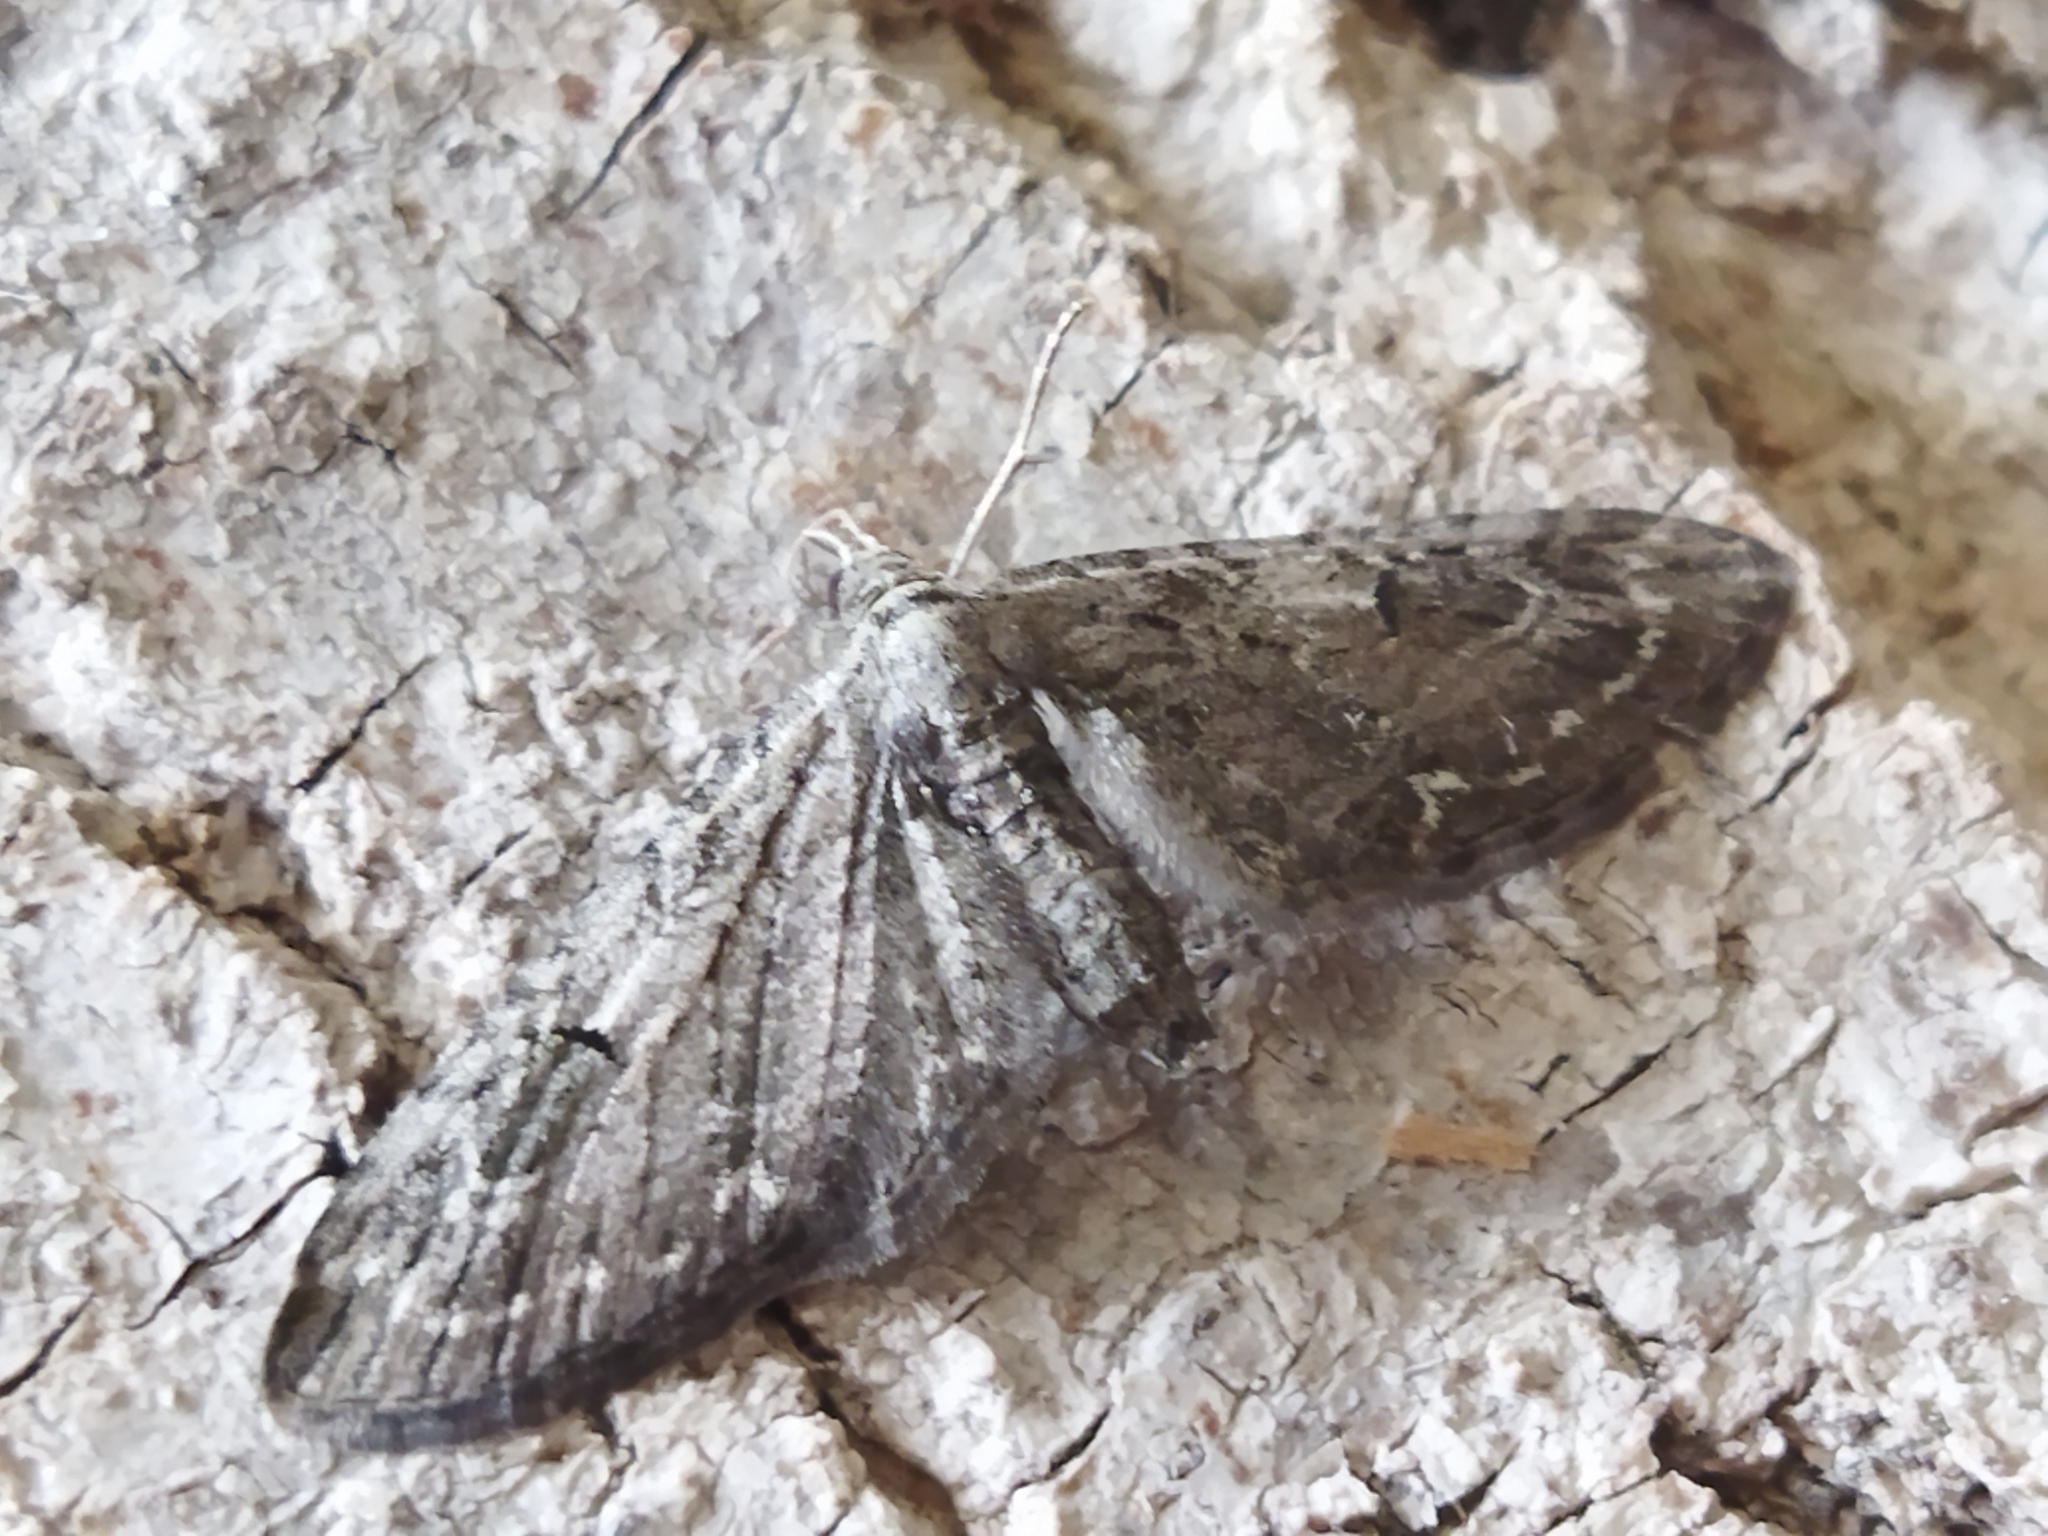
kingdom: Animalia
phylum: Arthropoda
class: Insecta
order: Lepidoptera
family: Geometridae
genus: Eupithecia
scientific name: Eupithecia innotata
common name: Angle-barred pug
